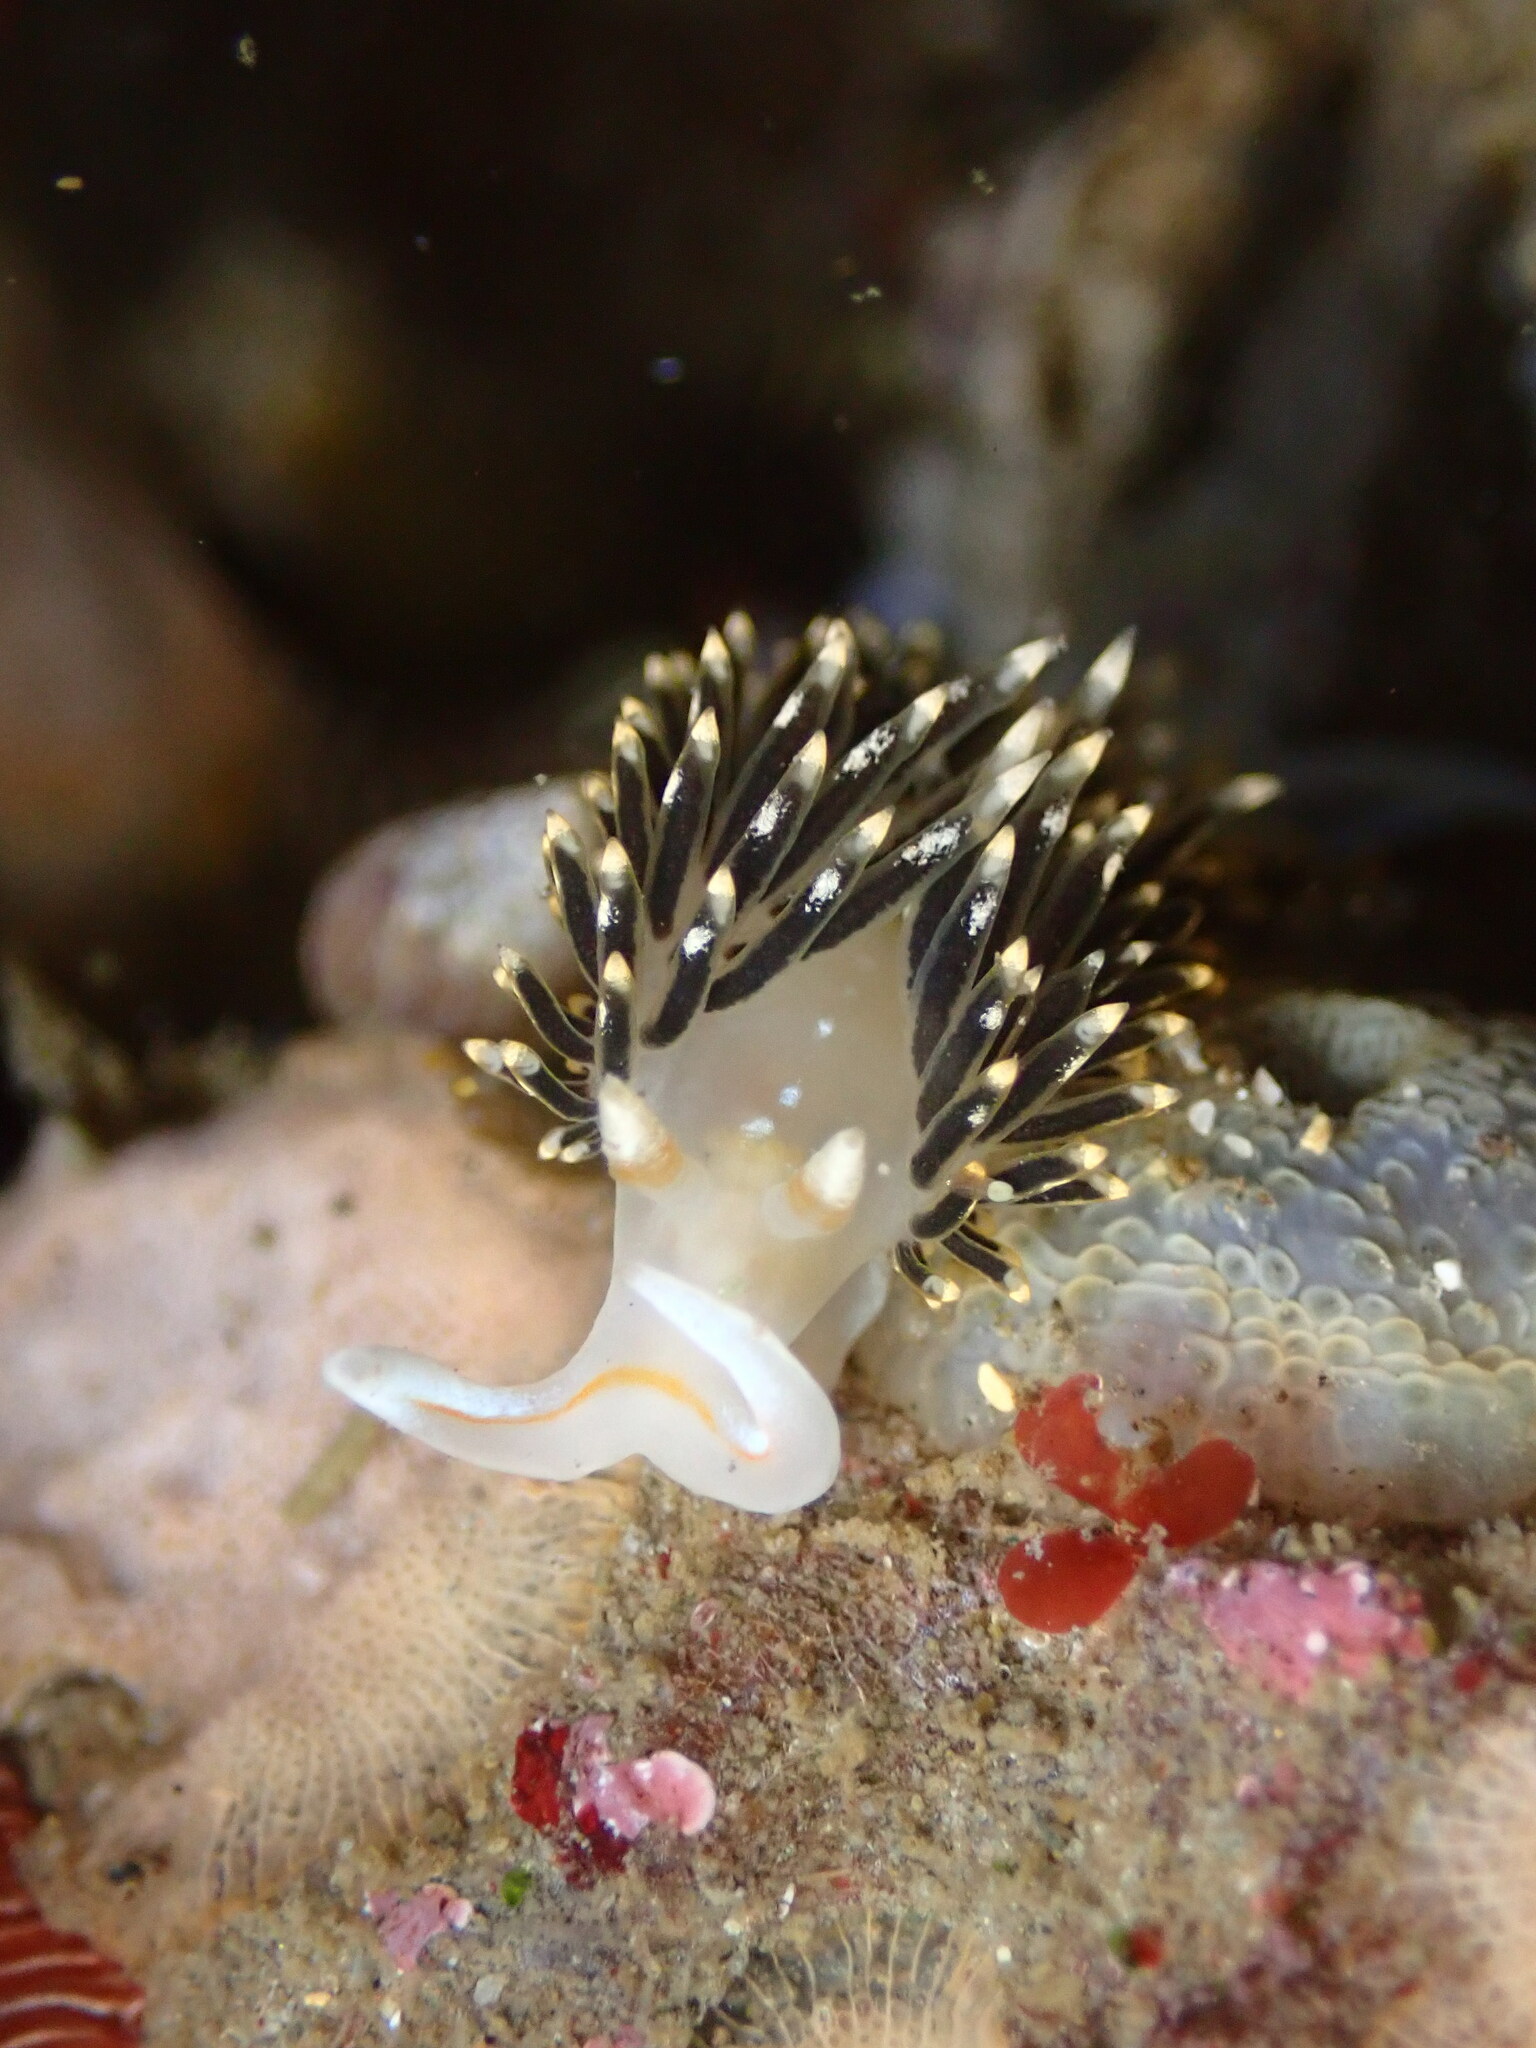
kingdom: Animalia
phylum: Mollusca
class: Gastropoda
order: Nudibranchia
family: Facelinidae
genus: Phidiana
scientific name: Phidiana hiltoni
